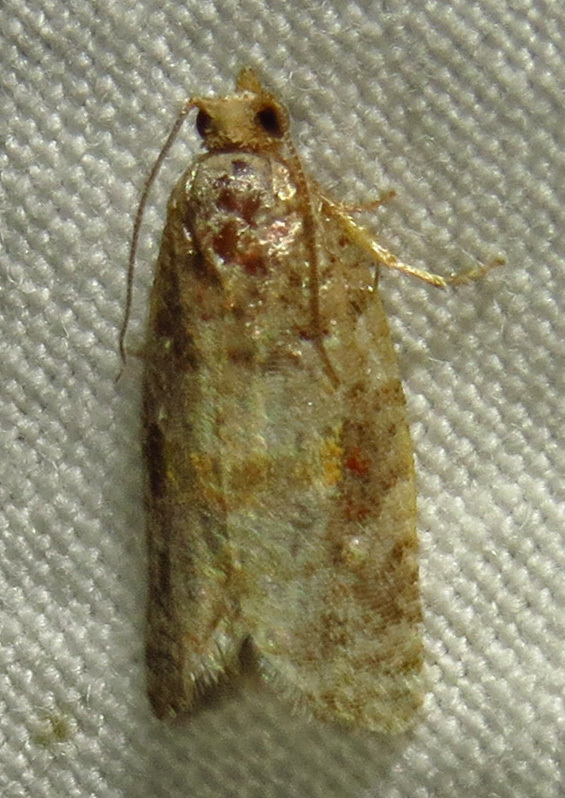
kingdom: Animalia
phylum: Arthropoda
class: Insecta
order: Lepidoptera
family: Tortricidae
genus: Argyrotaenia
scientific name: Argyrotaenia kimballi
